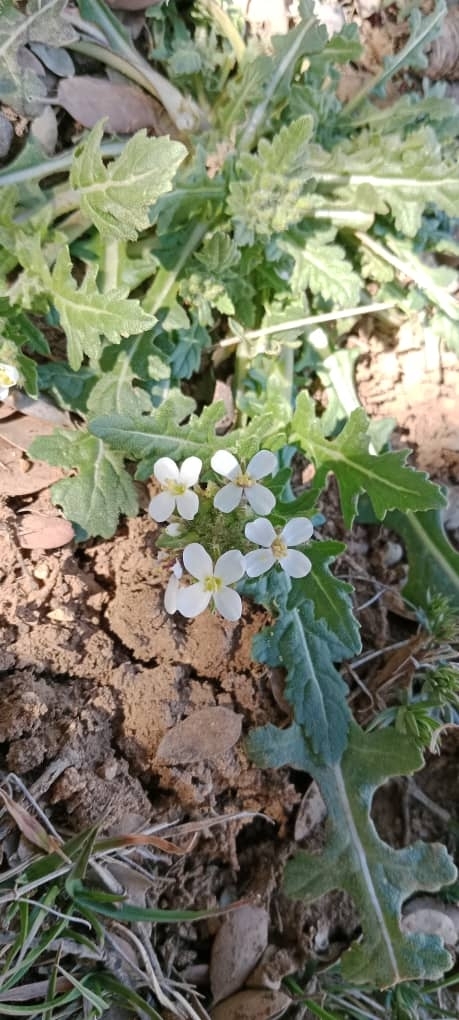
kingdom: Plantae
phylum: Tracheophyta
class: Magnoliopsida
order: Brassicales
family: Brassicaceae
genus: Diplotaxis
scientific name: Diplotaxis erucoides
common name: White rocket
